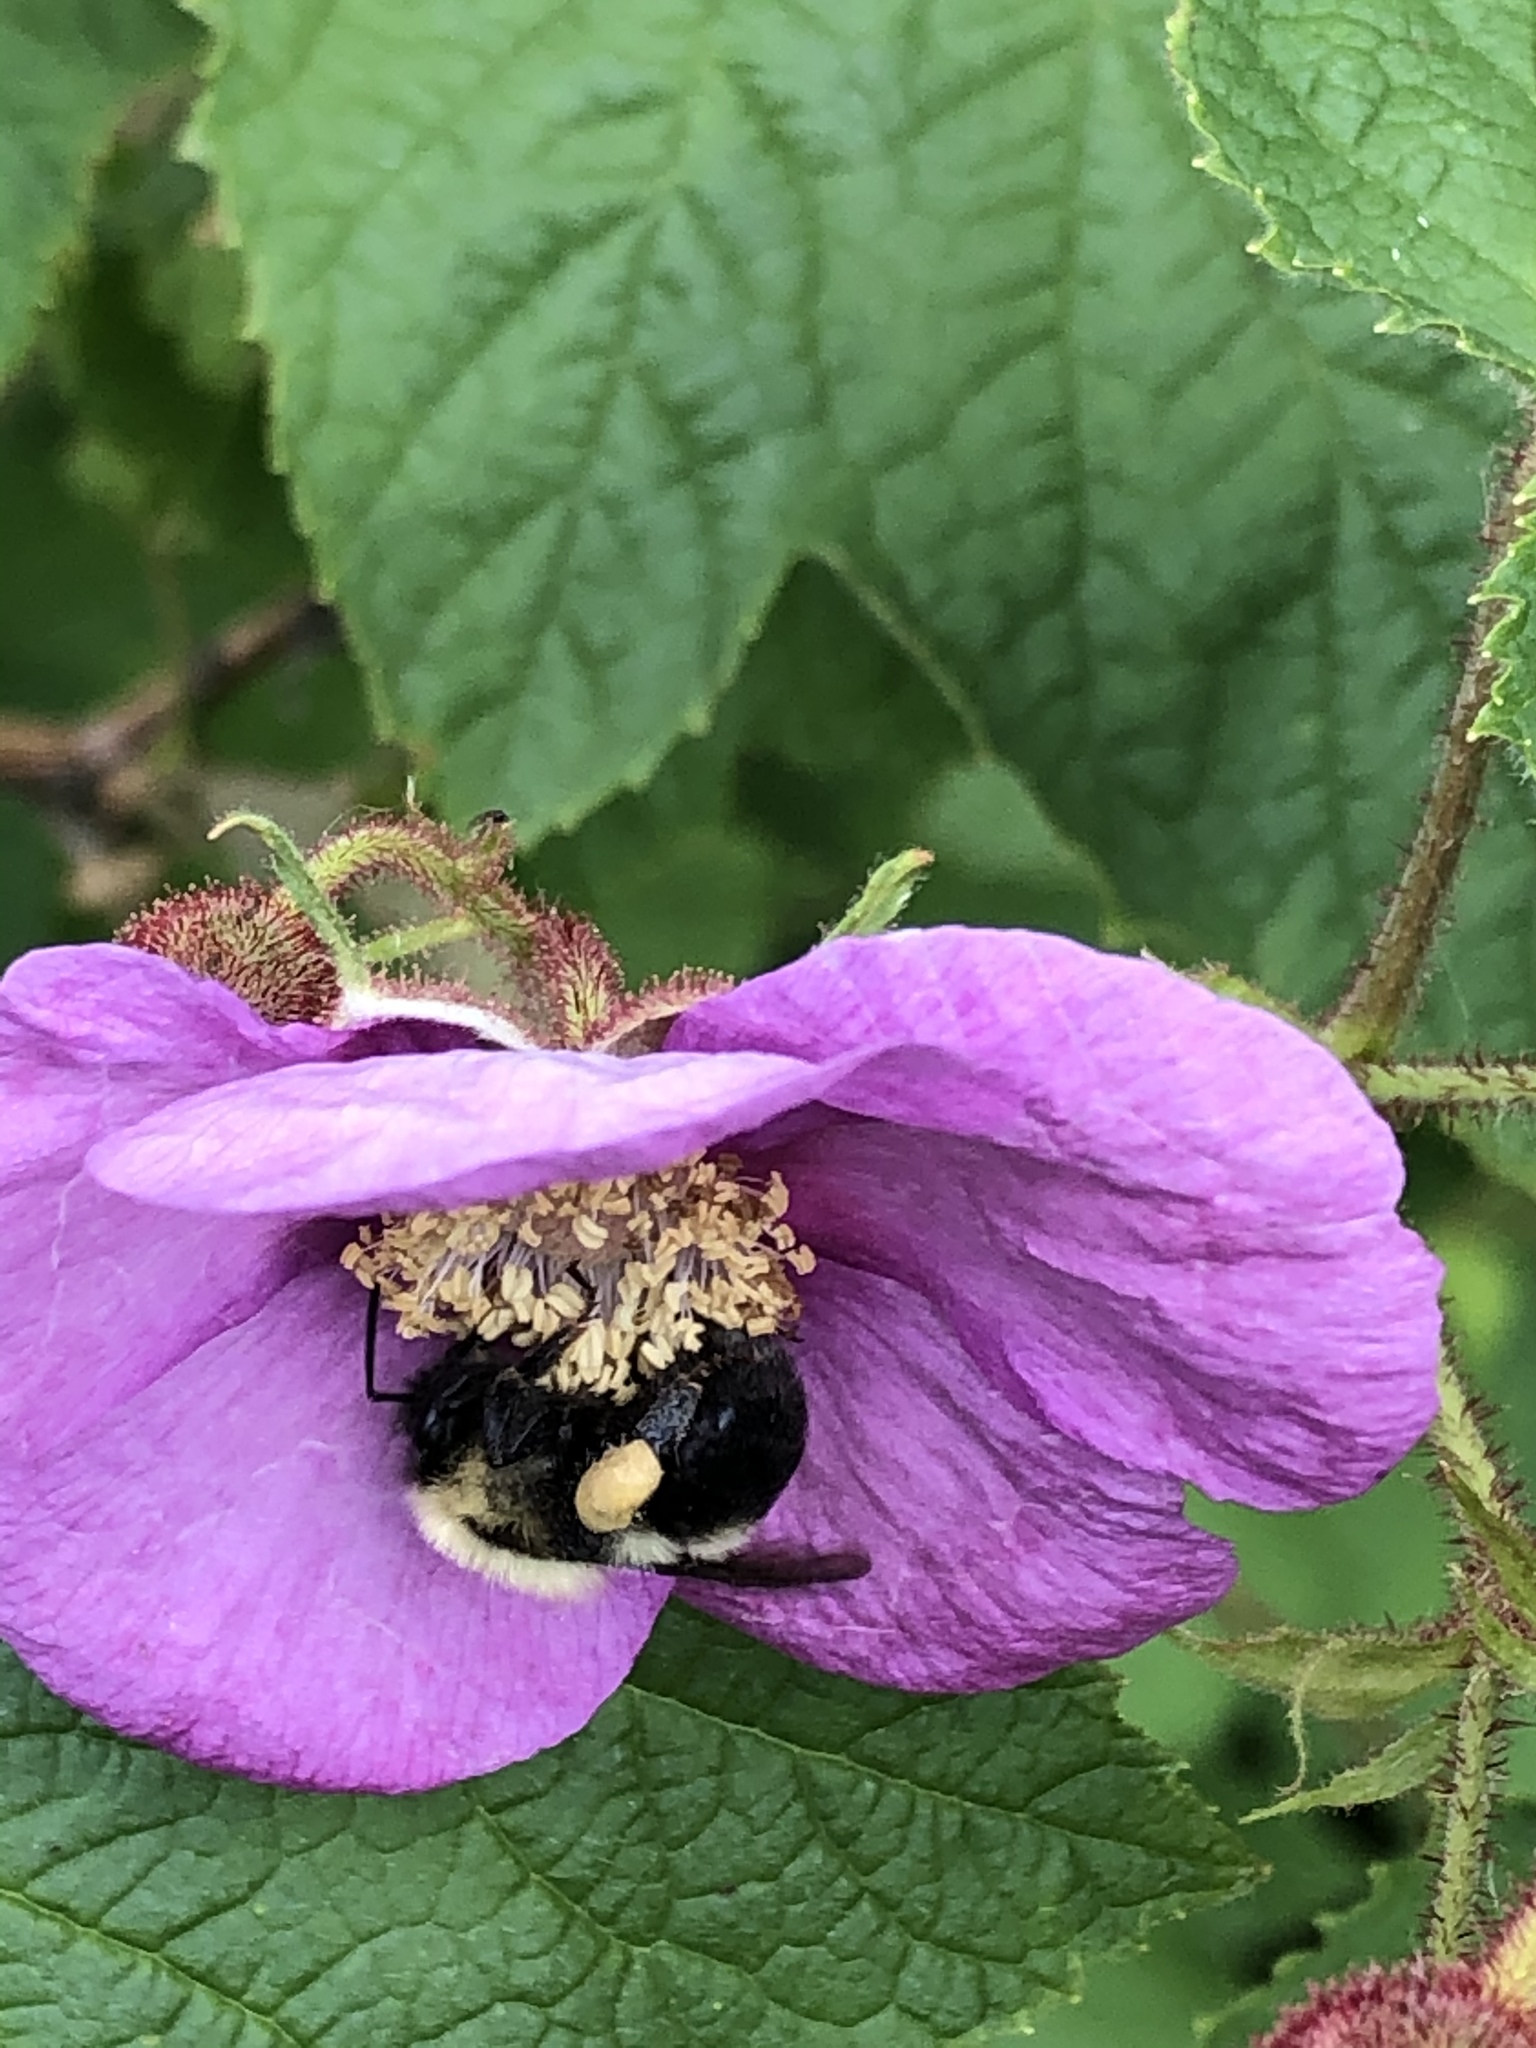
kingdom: Animalia
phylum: Arthropoda
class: Insecta
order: Hymenoptera
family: Apidae
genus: Bombus
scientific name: Bombus bimaculatus
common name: Two-spotted bumble bee
